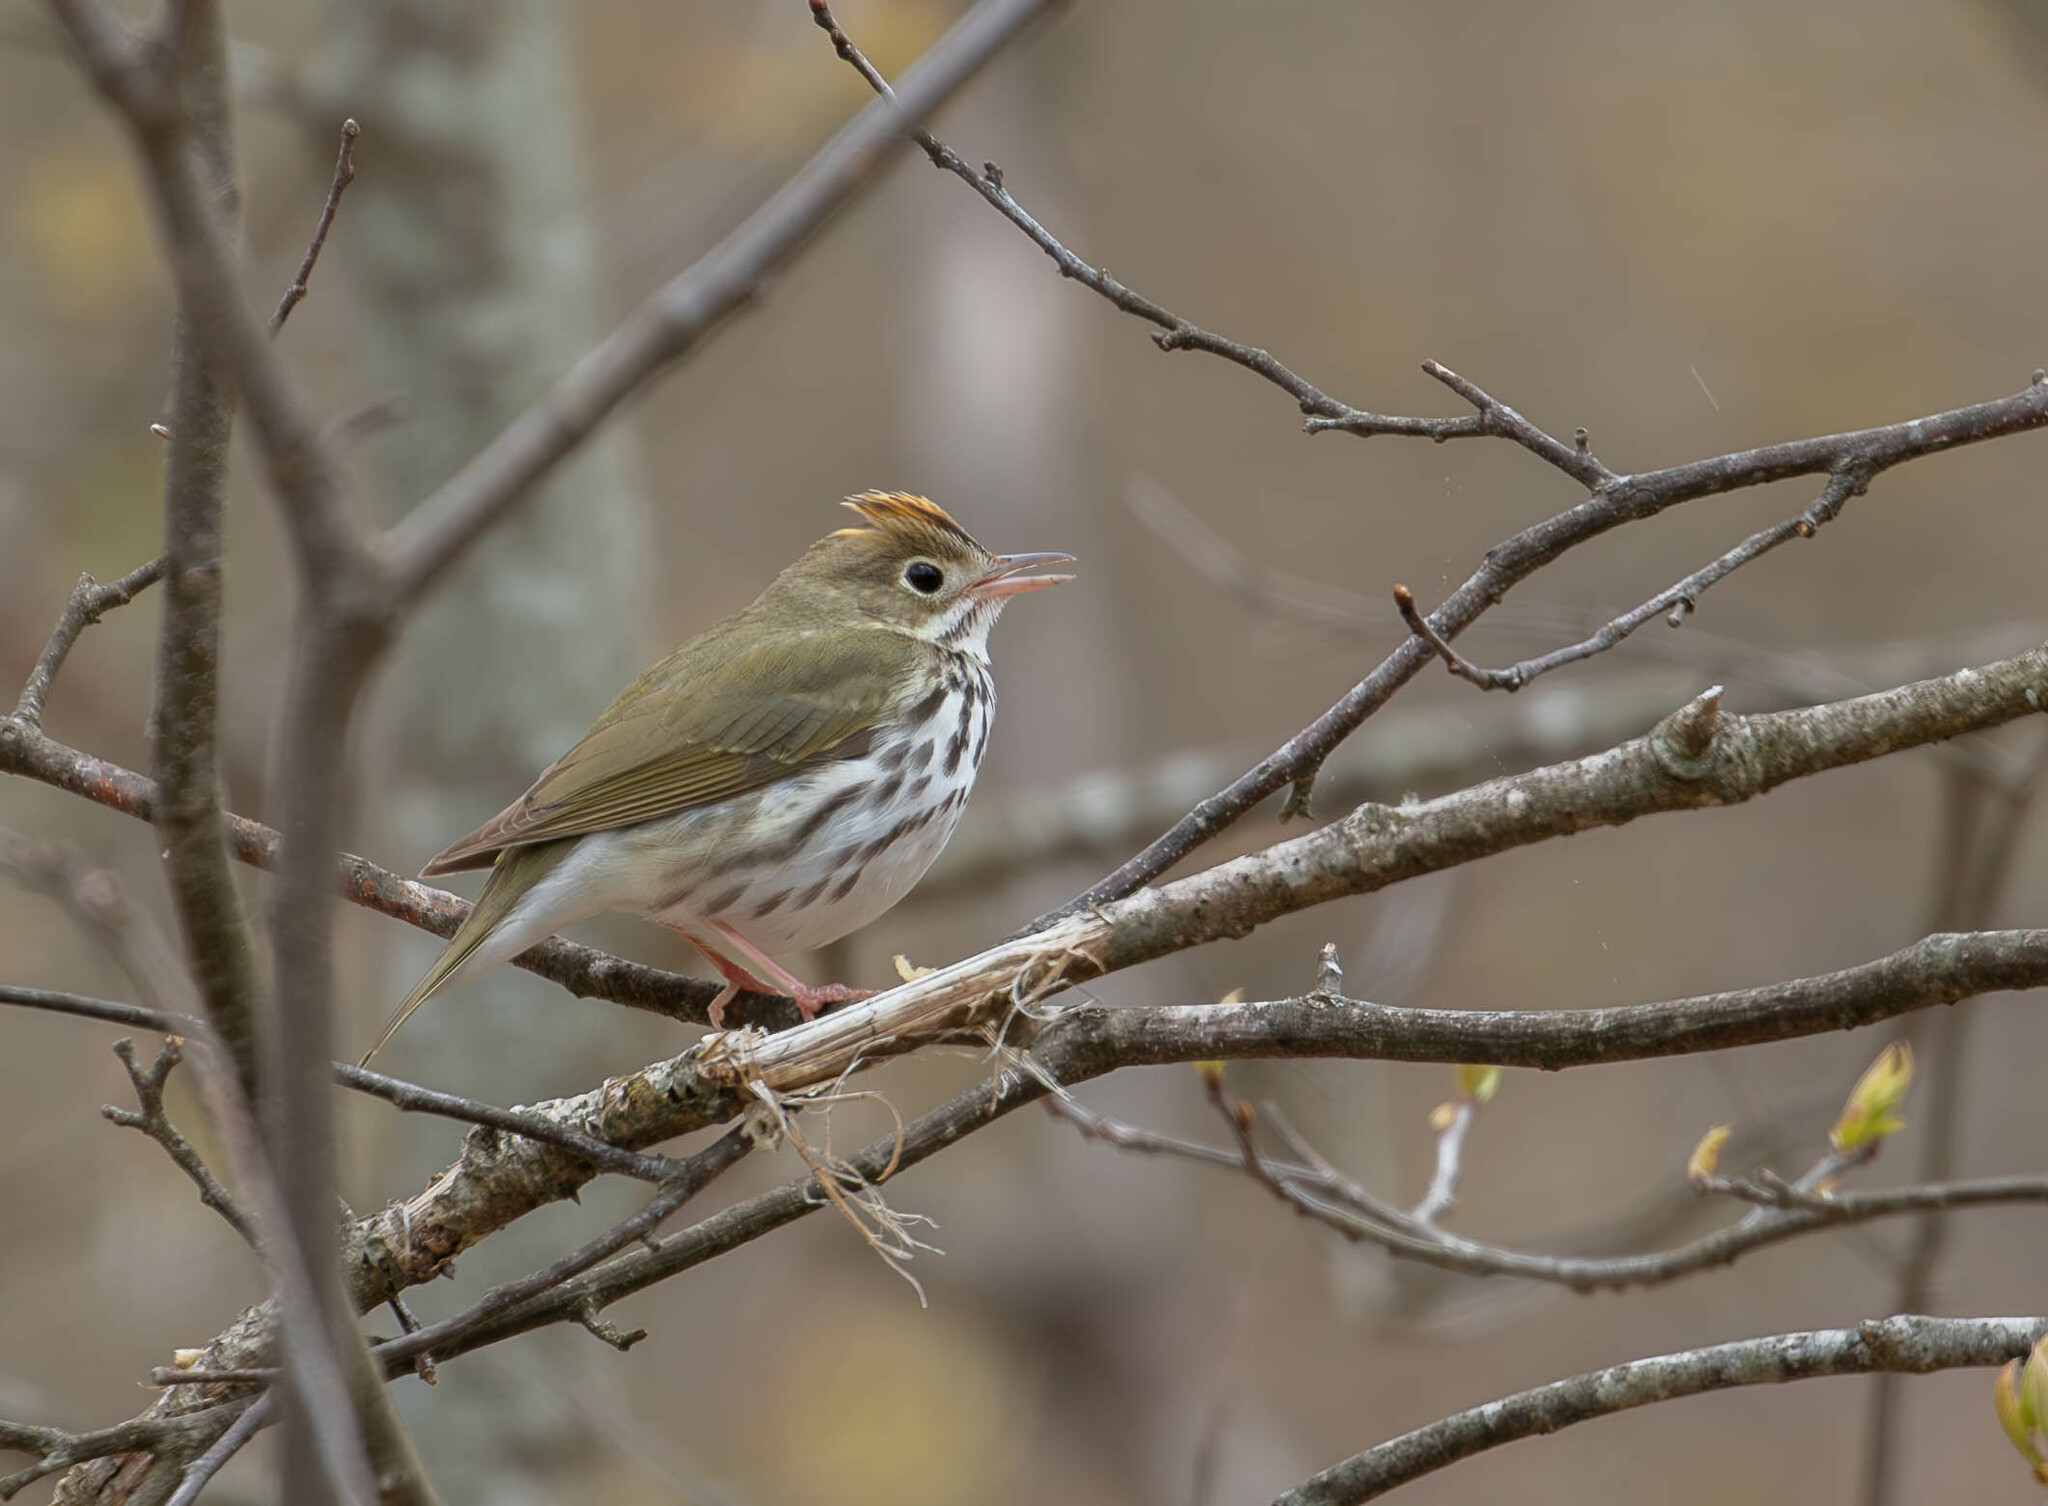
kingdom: Animalia
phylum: Chordata
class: Aves
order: Passeriformes
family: Parulidae
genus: Seiurus
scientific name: Seiurus aurocapilla
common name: Ovenbird
